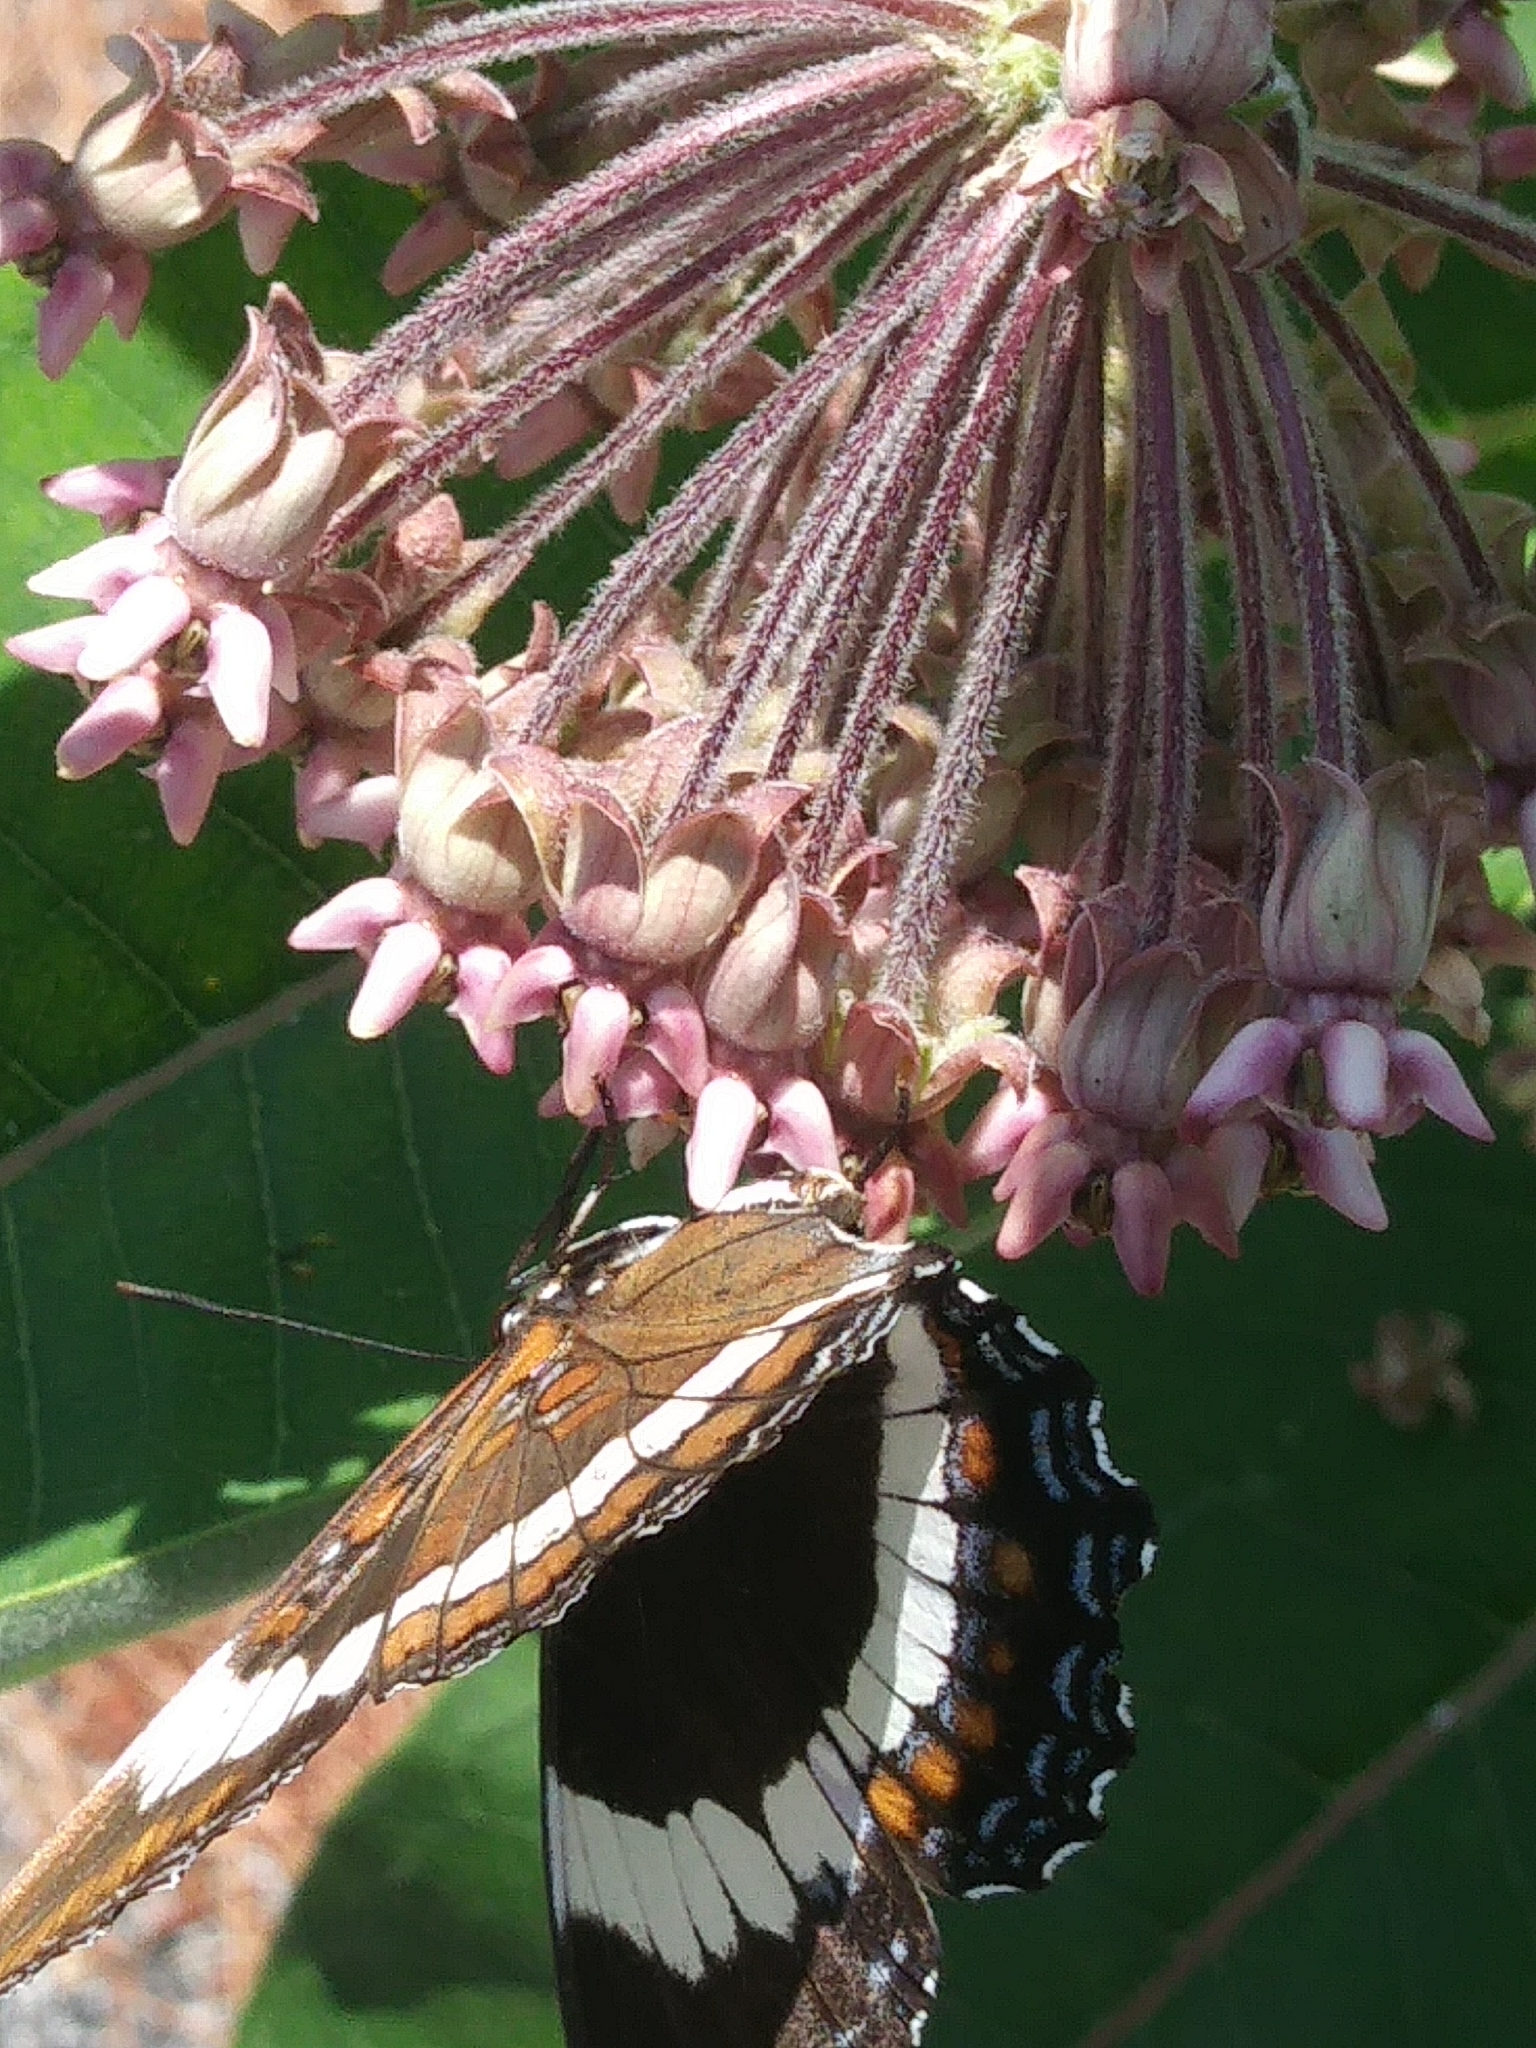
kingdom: Animalia
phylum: Arthropoda
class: Insecta
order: Lepidoptera
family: Nymphalidae
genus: Limenitis
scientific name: Limenitis arthemis
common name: Red-spotted admiral
